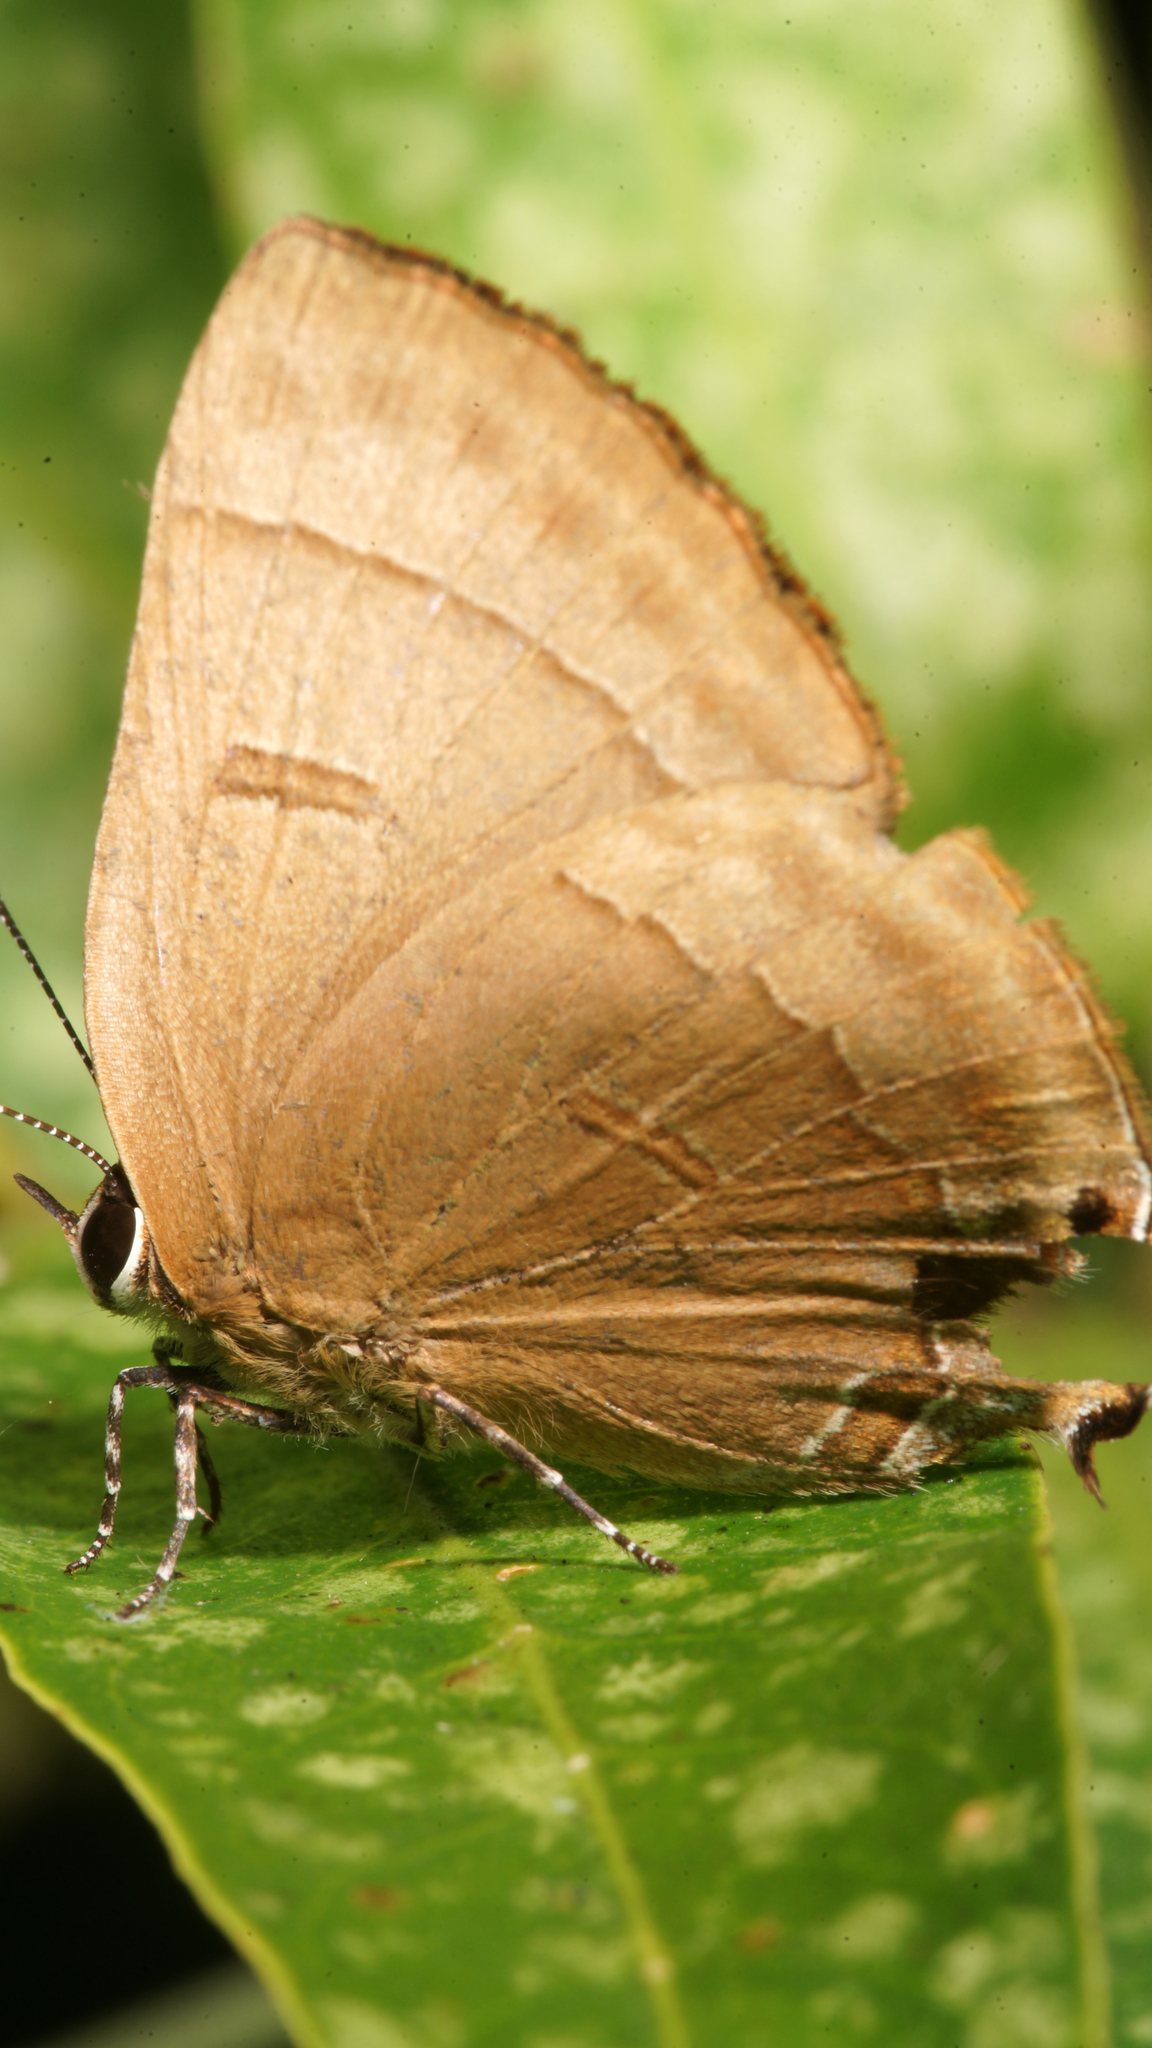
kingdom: Animalia
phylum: Arthropoda
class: Insecta
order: Lepidoptera
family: Lycaenidae
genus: Rapala
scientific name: Rapala schistacea
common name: Slate flash
